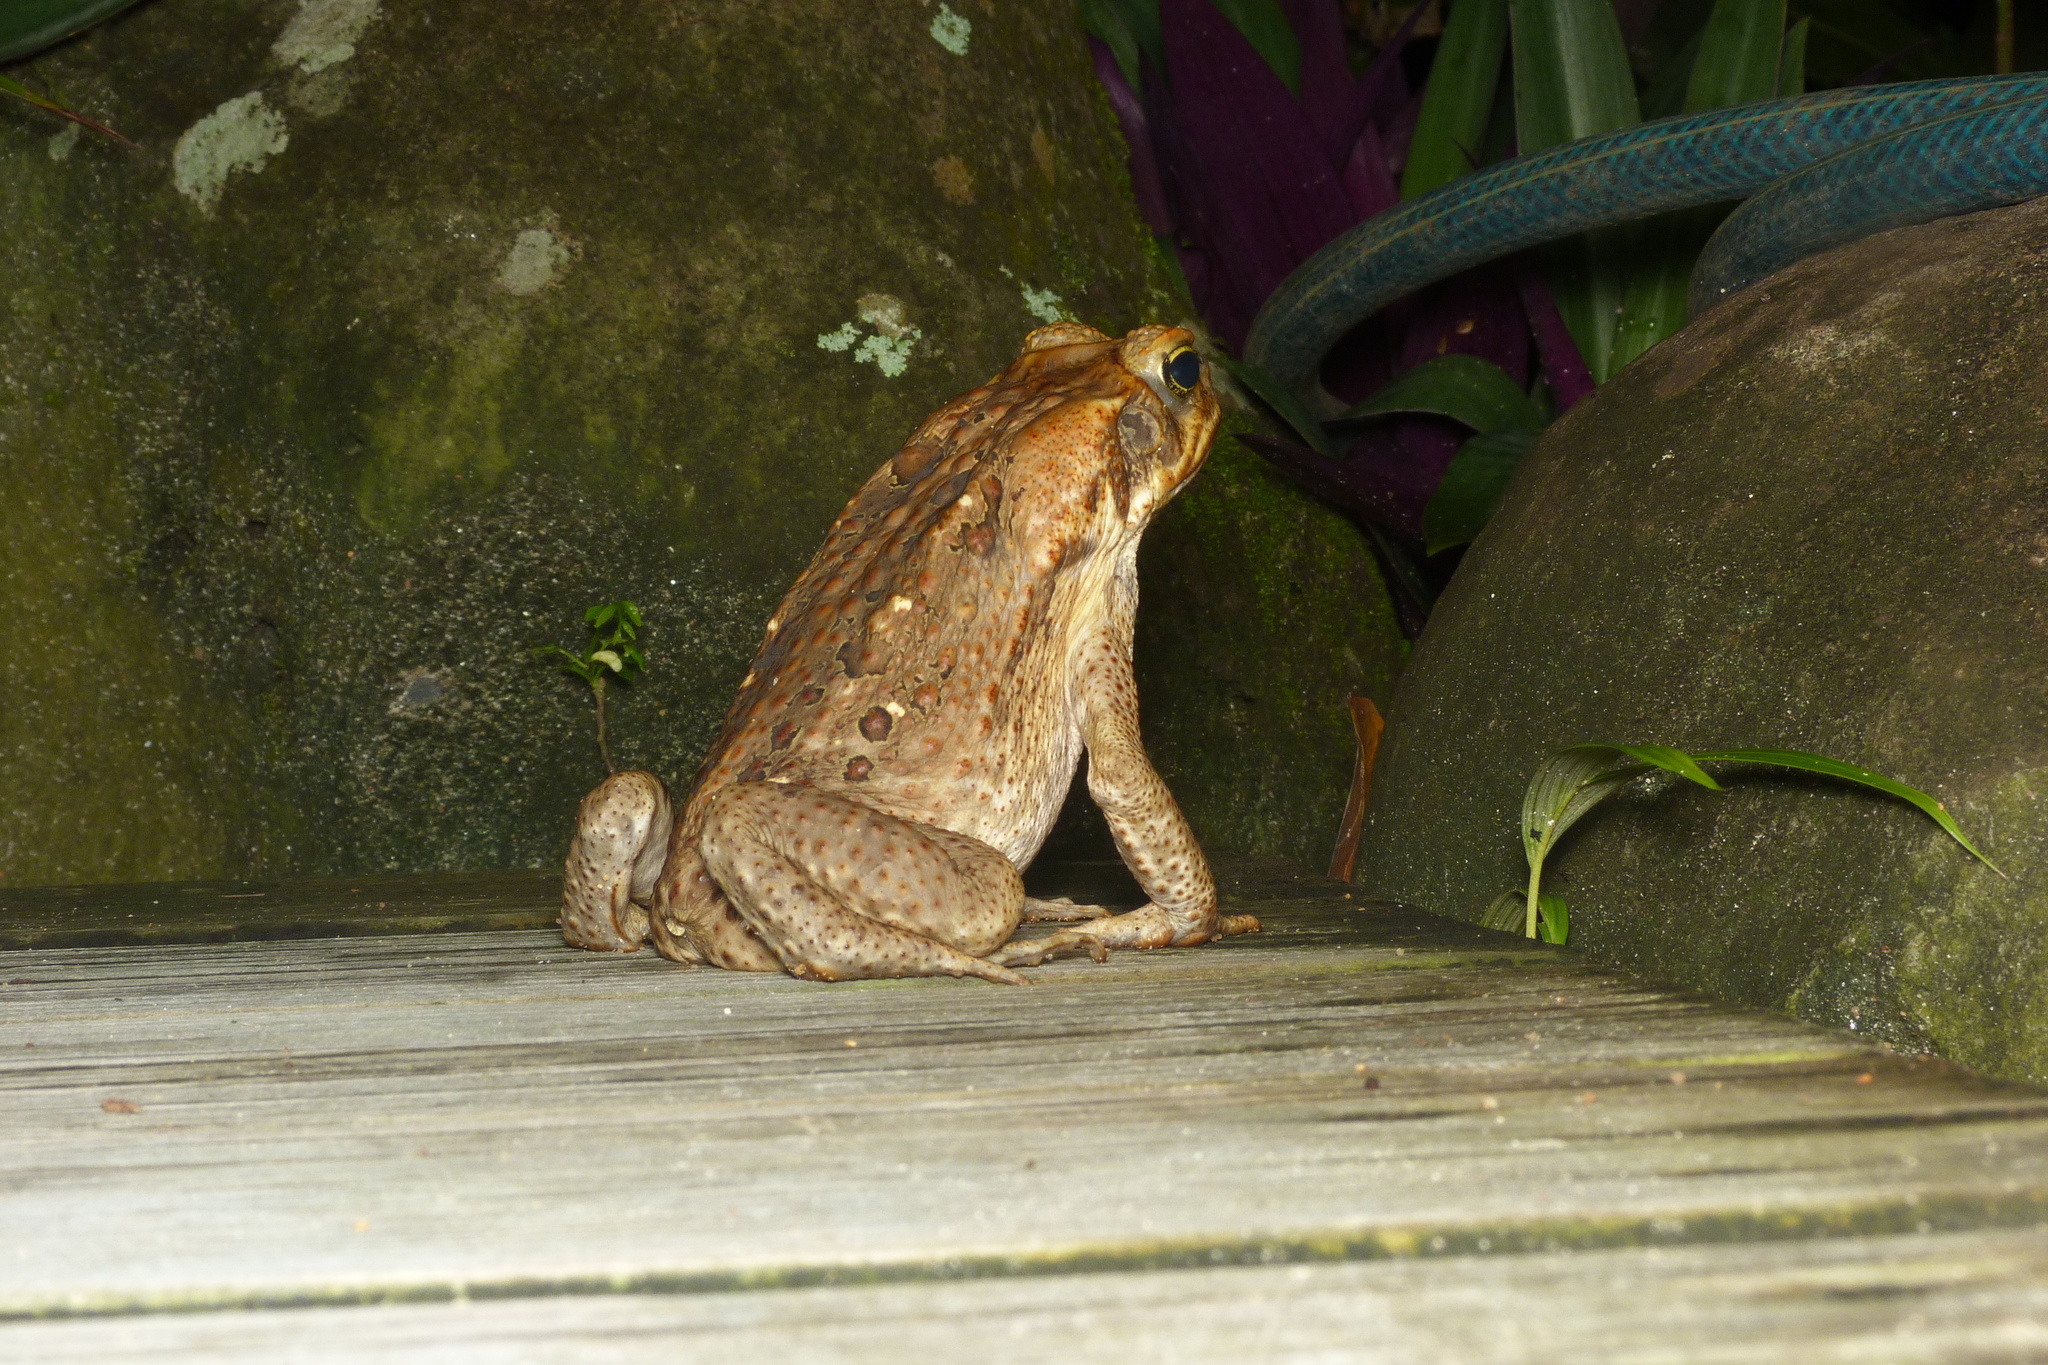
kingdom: Animalia
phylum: Chordata
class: Amphibia
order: Anura
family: Bufonidae
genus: Rhinella
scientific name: Rhinella marina
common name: Cane toad
